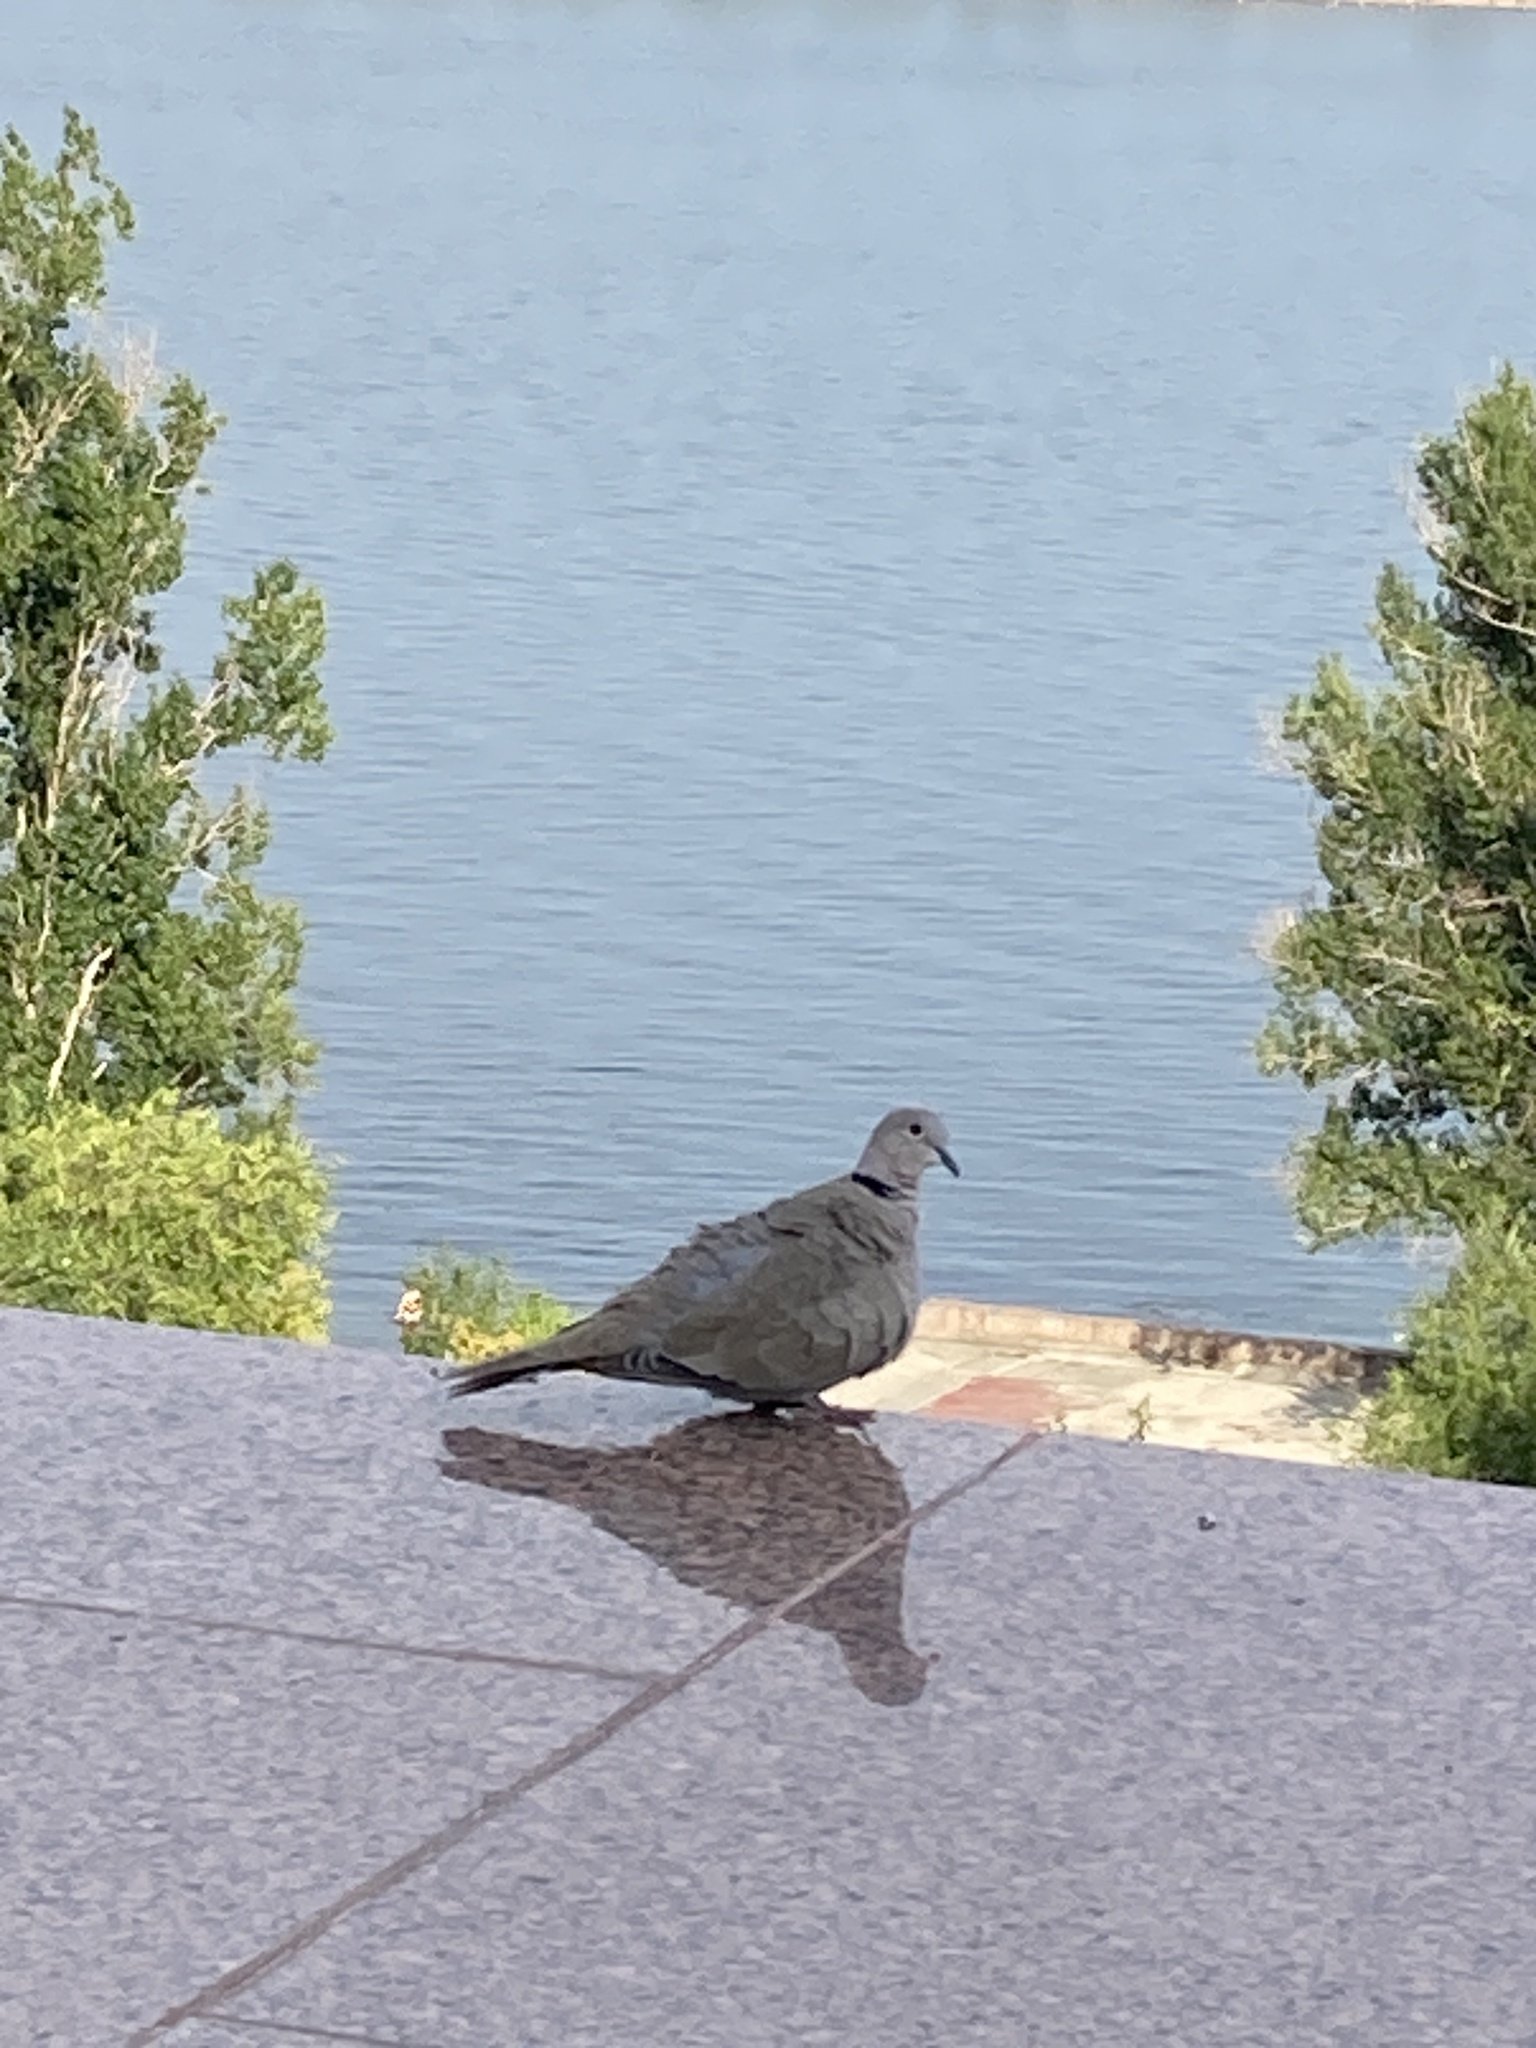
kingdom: Animalia
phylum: Chordata
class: Aves
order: Columbiformes
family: Columbidae
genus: Streptopelia
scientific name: Streptopelia decaocto
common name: Eurasian collared dove
